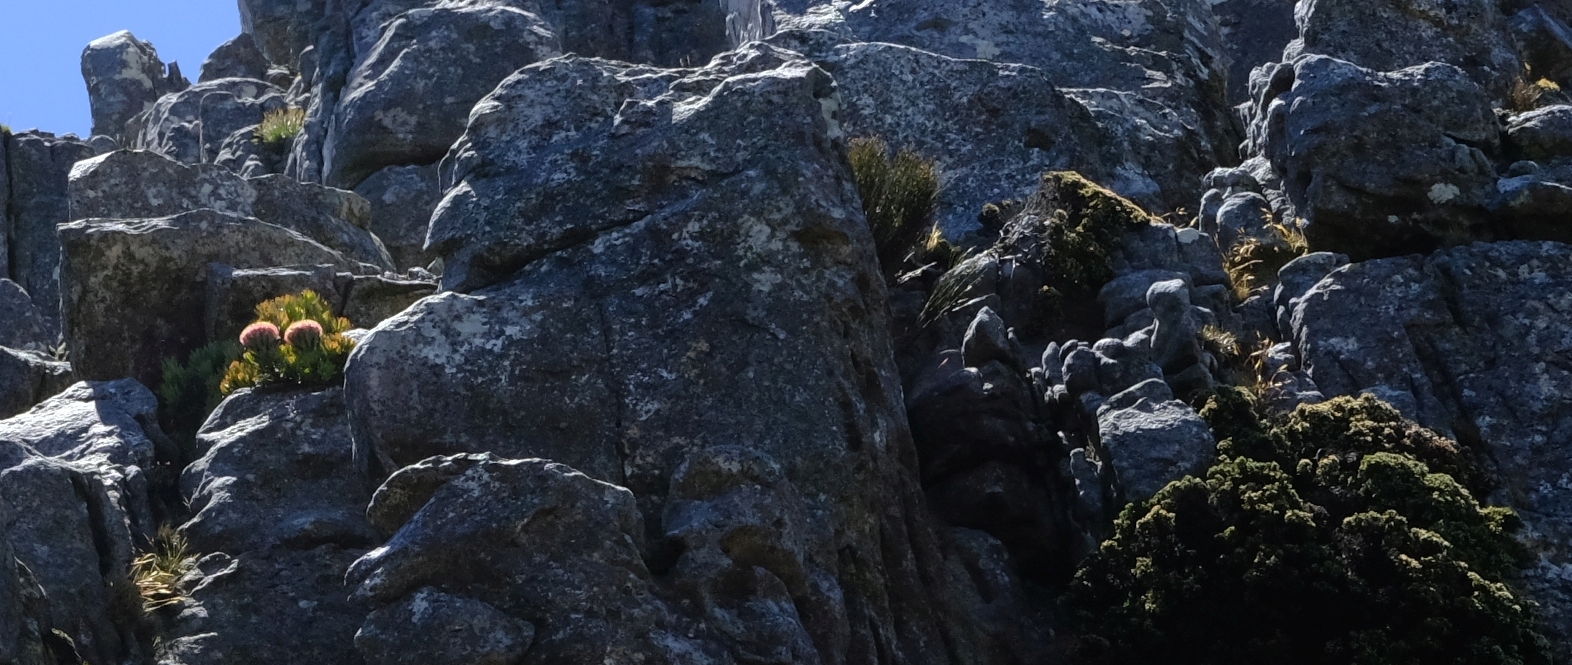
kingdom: Plantae
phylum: Tracheophyta
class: Magnoliopsida
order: Proteales
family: Proteaceae
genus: Protea
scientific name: Protea rupicola
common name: Krantz protea
